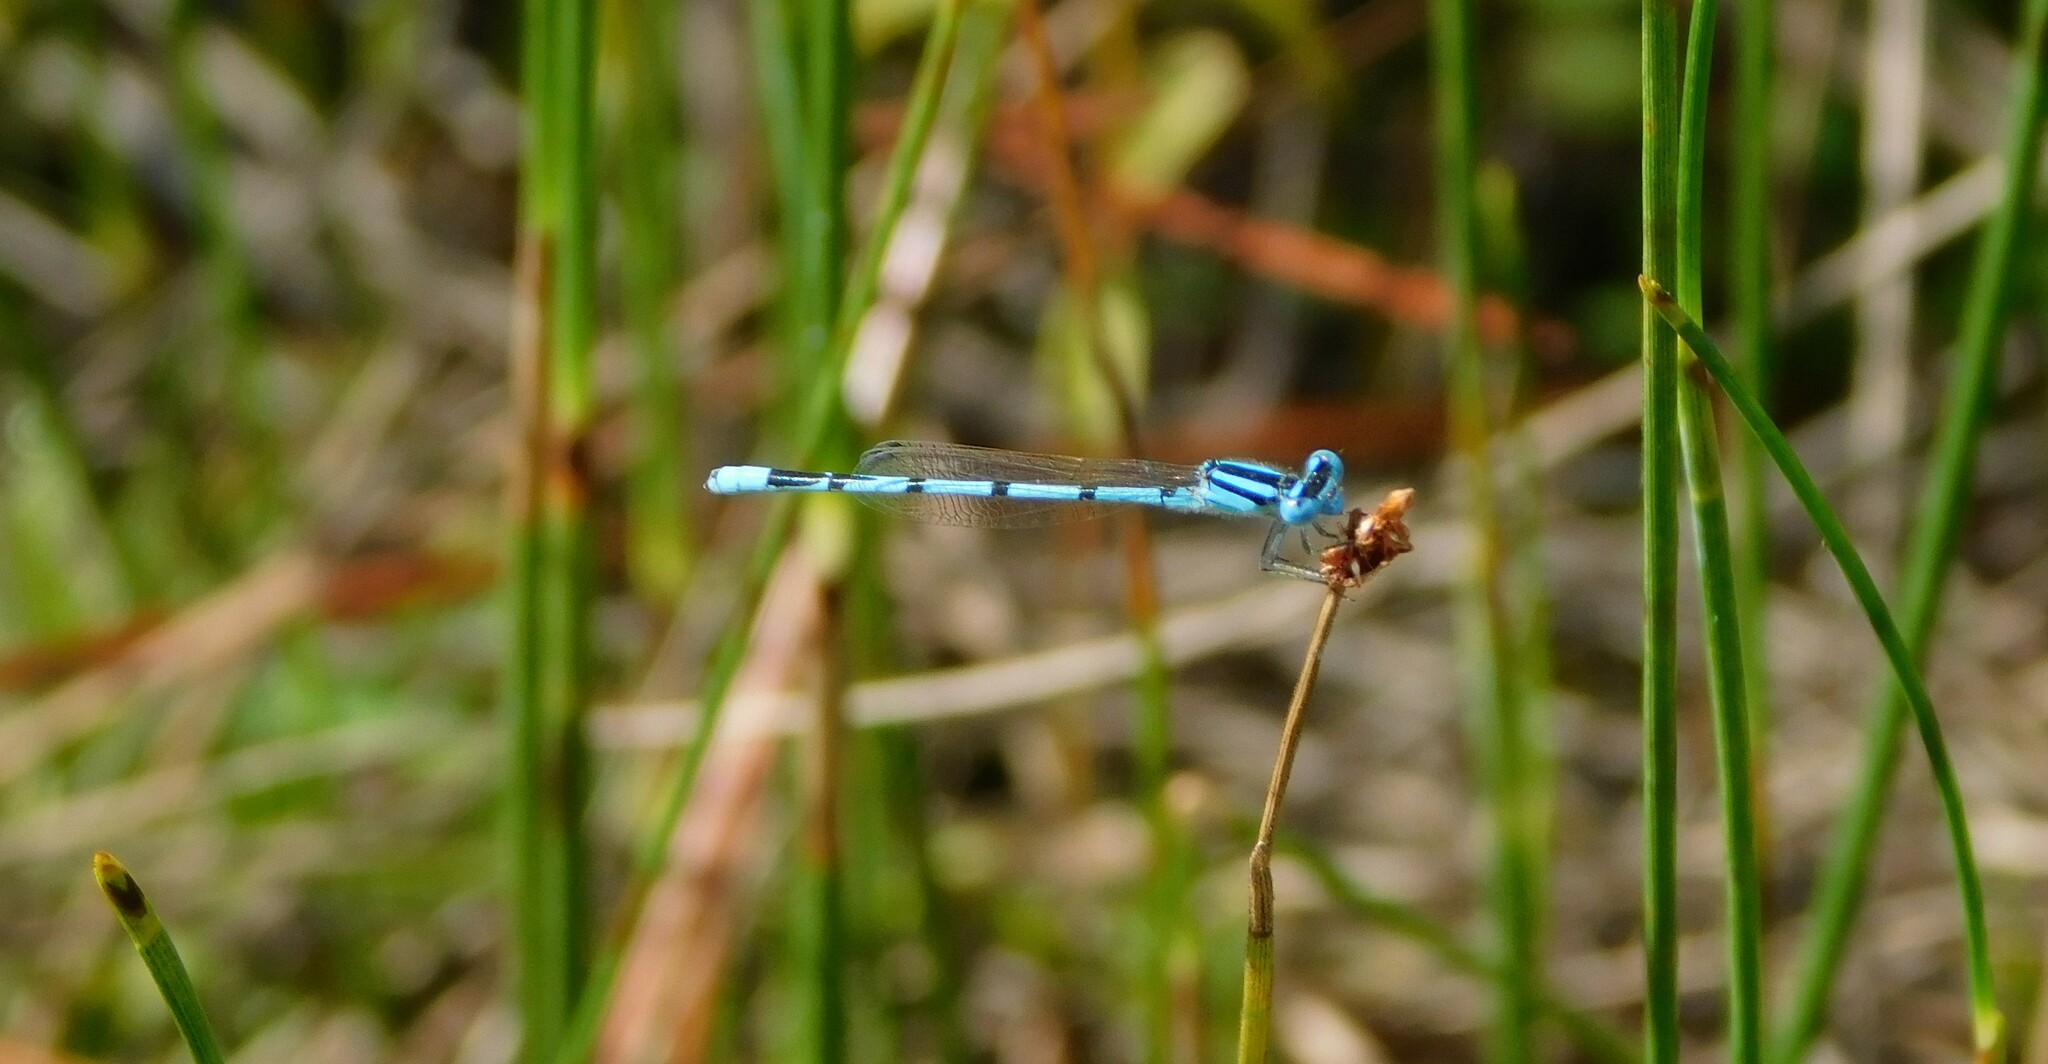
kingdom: Animalia
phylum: Arthropoda
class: Insecta
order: Odonata
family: Coenagrionidae
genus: Enallagma
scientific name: Enallagma doubledayi
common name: Atlantic bluet
